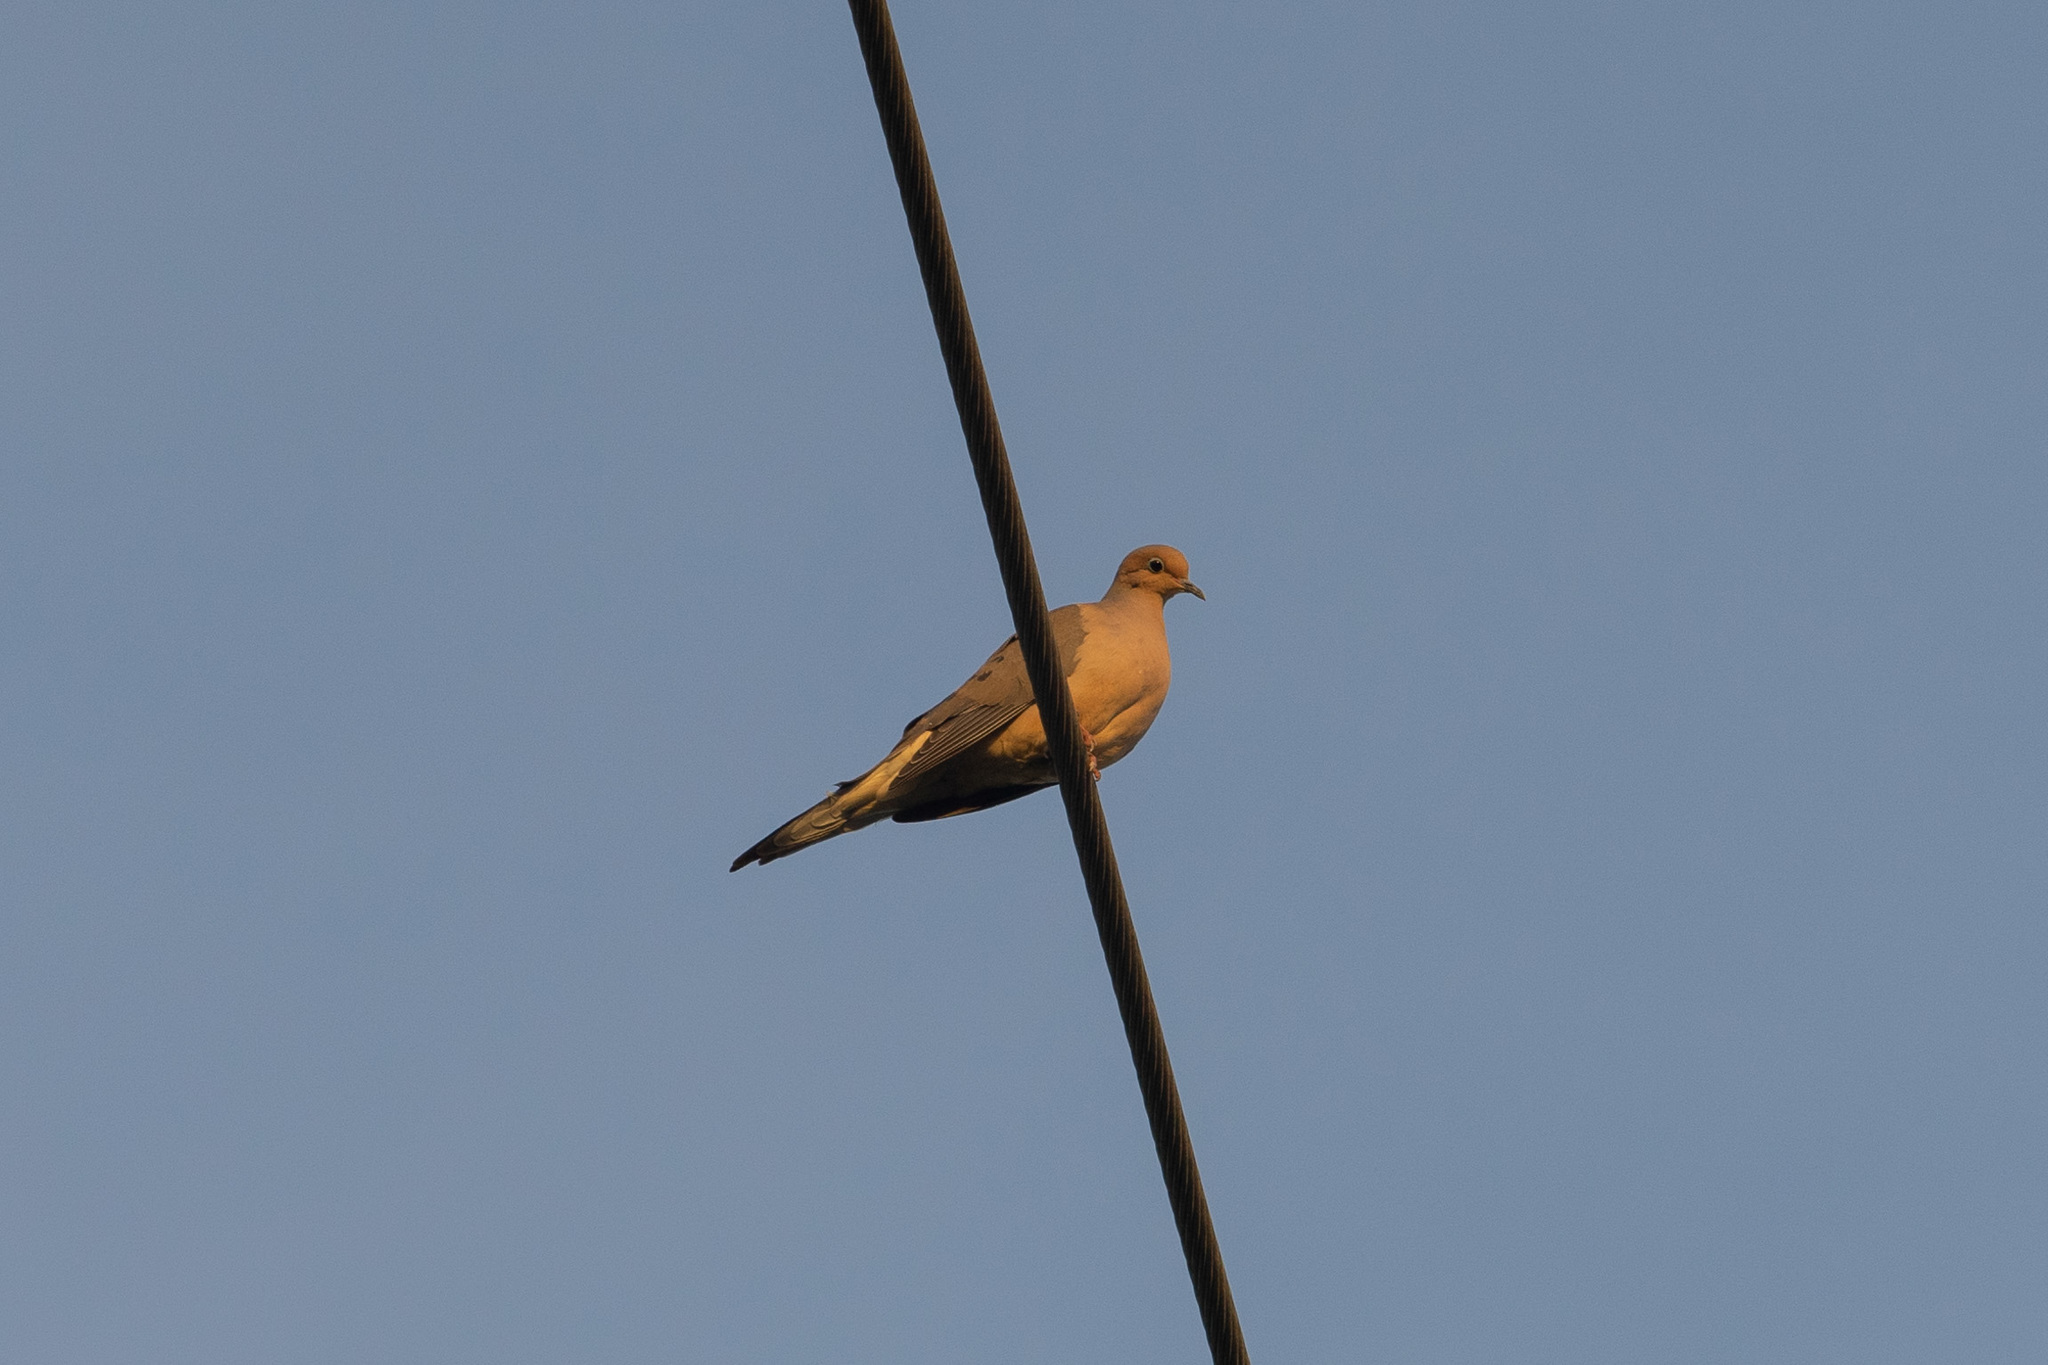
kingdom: Animalia
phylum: Chordata
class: Aves
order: Columbiformes
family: Columbidae
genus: Zenaida
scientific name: Zenaida macroura
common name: Mourning dove
